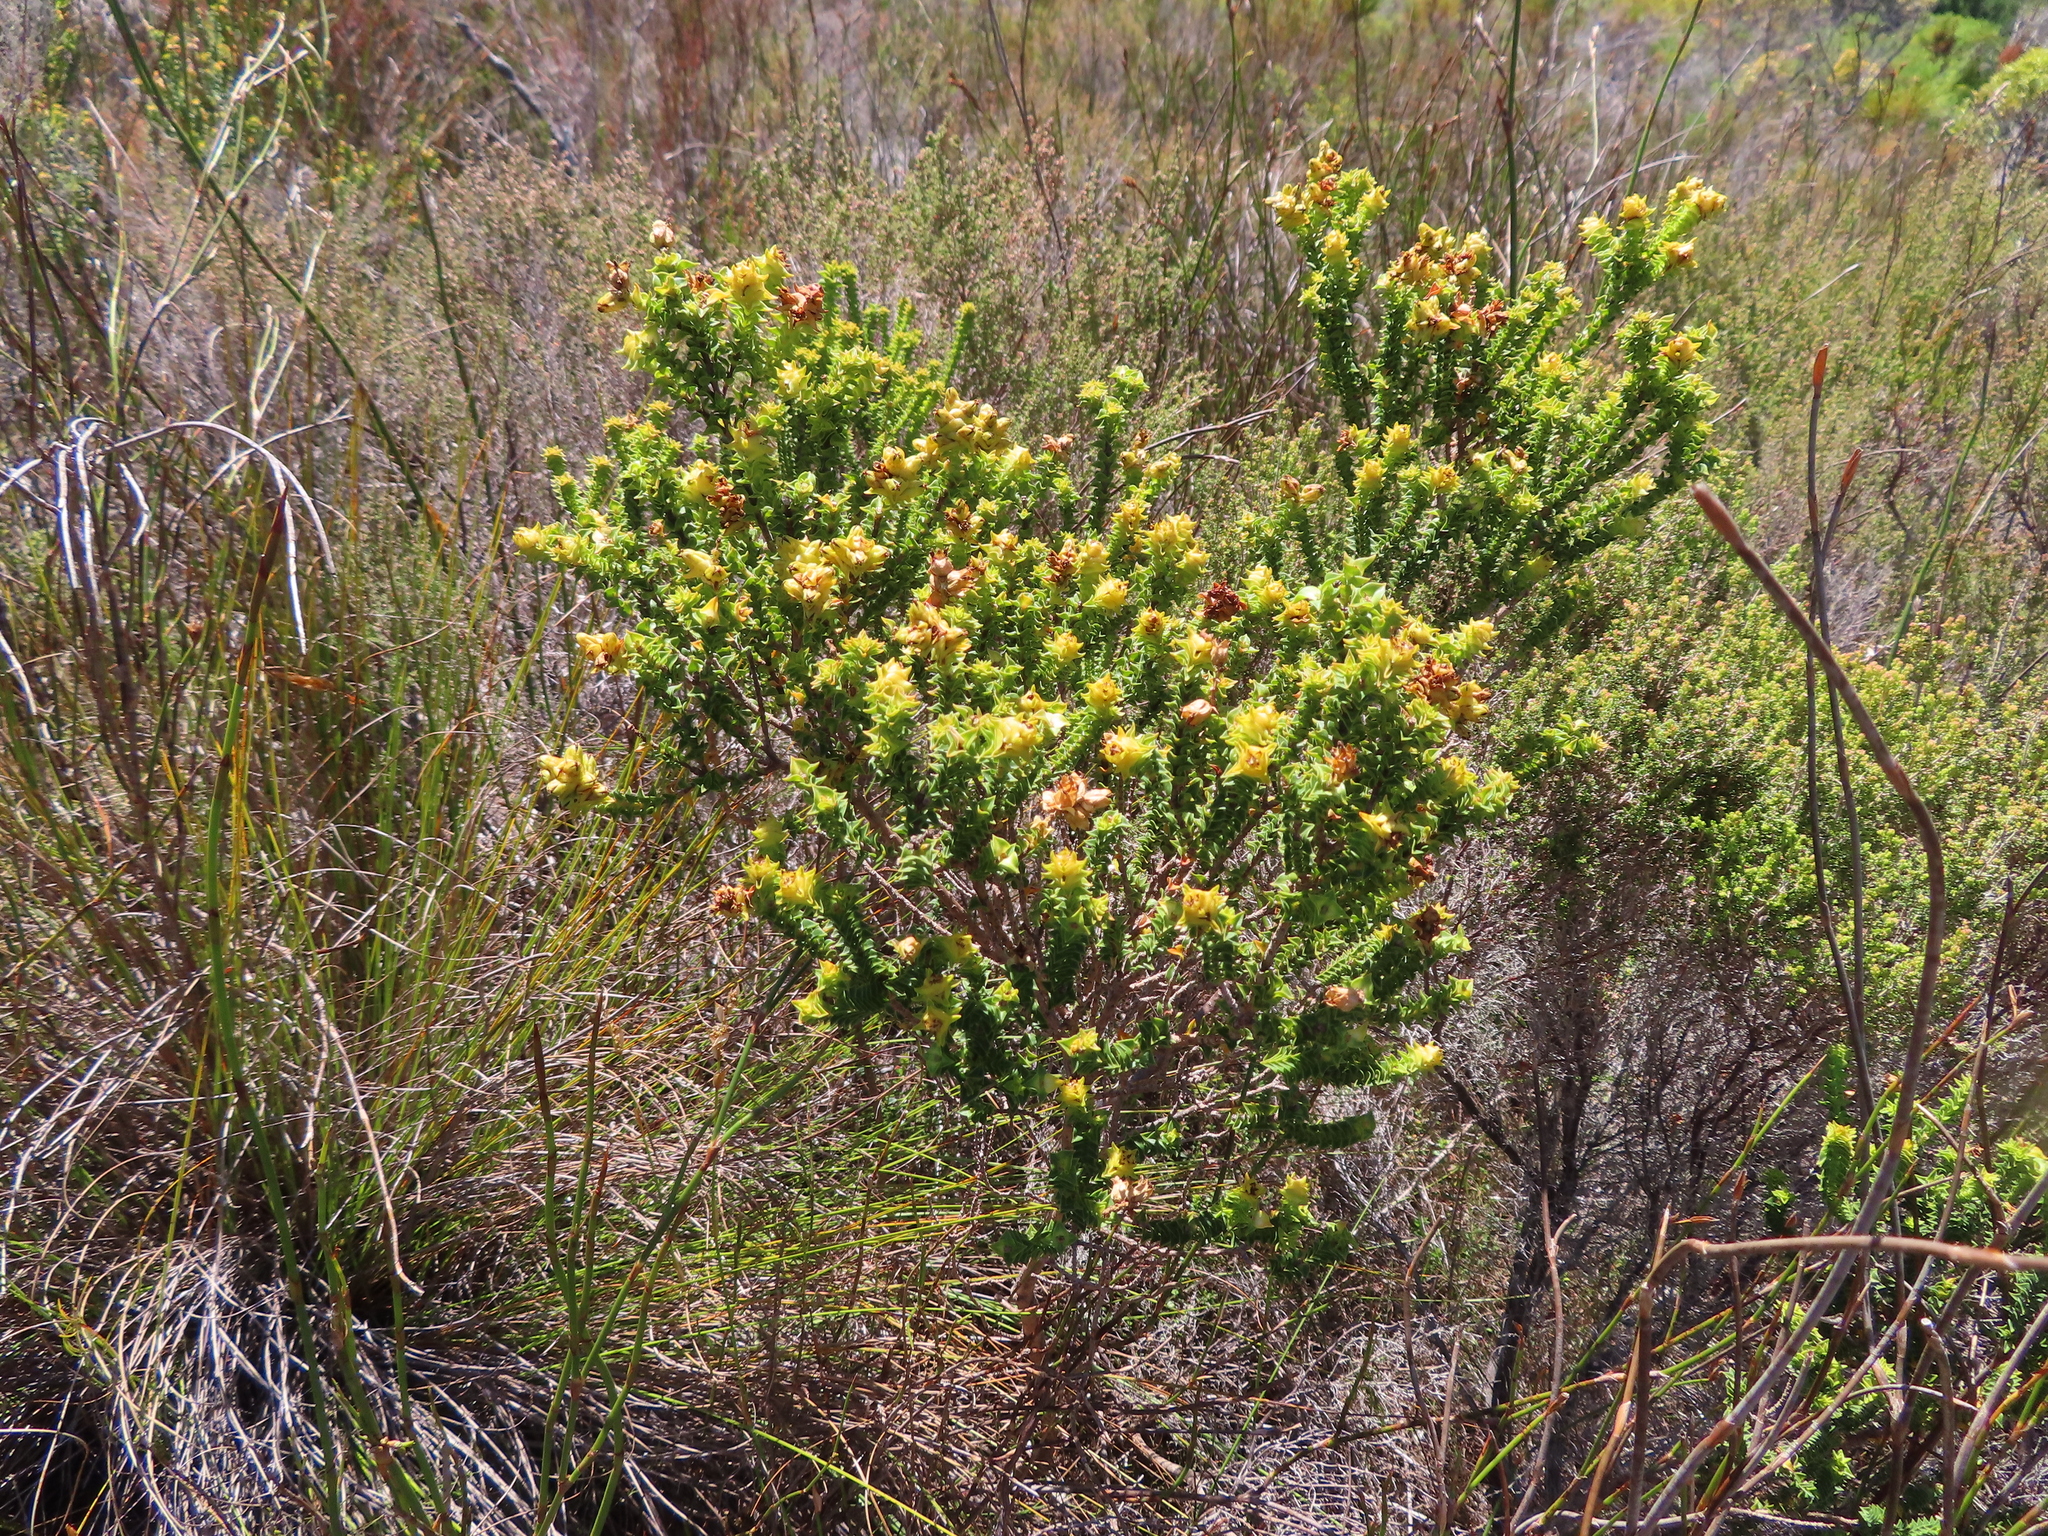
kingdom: Plantae
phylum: Tracheophyta
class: Magnoliopsida
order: Myrtales
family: Penaeaceae
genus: Penaea
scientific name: Penaea mucronata
